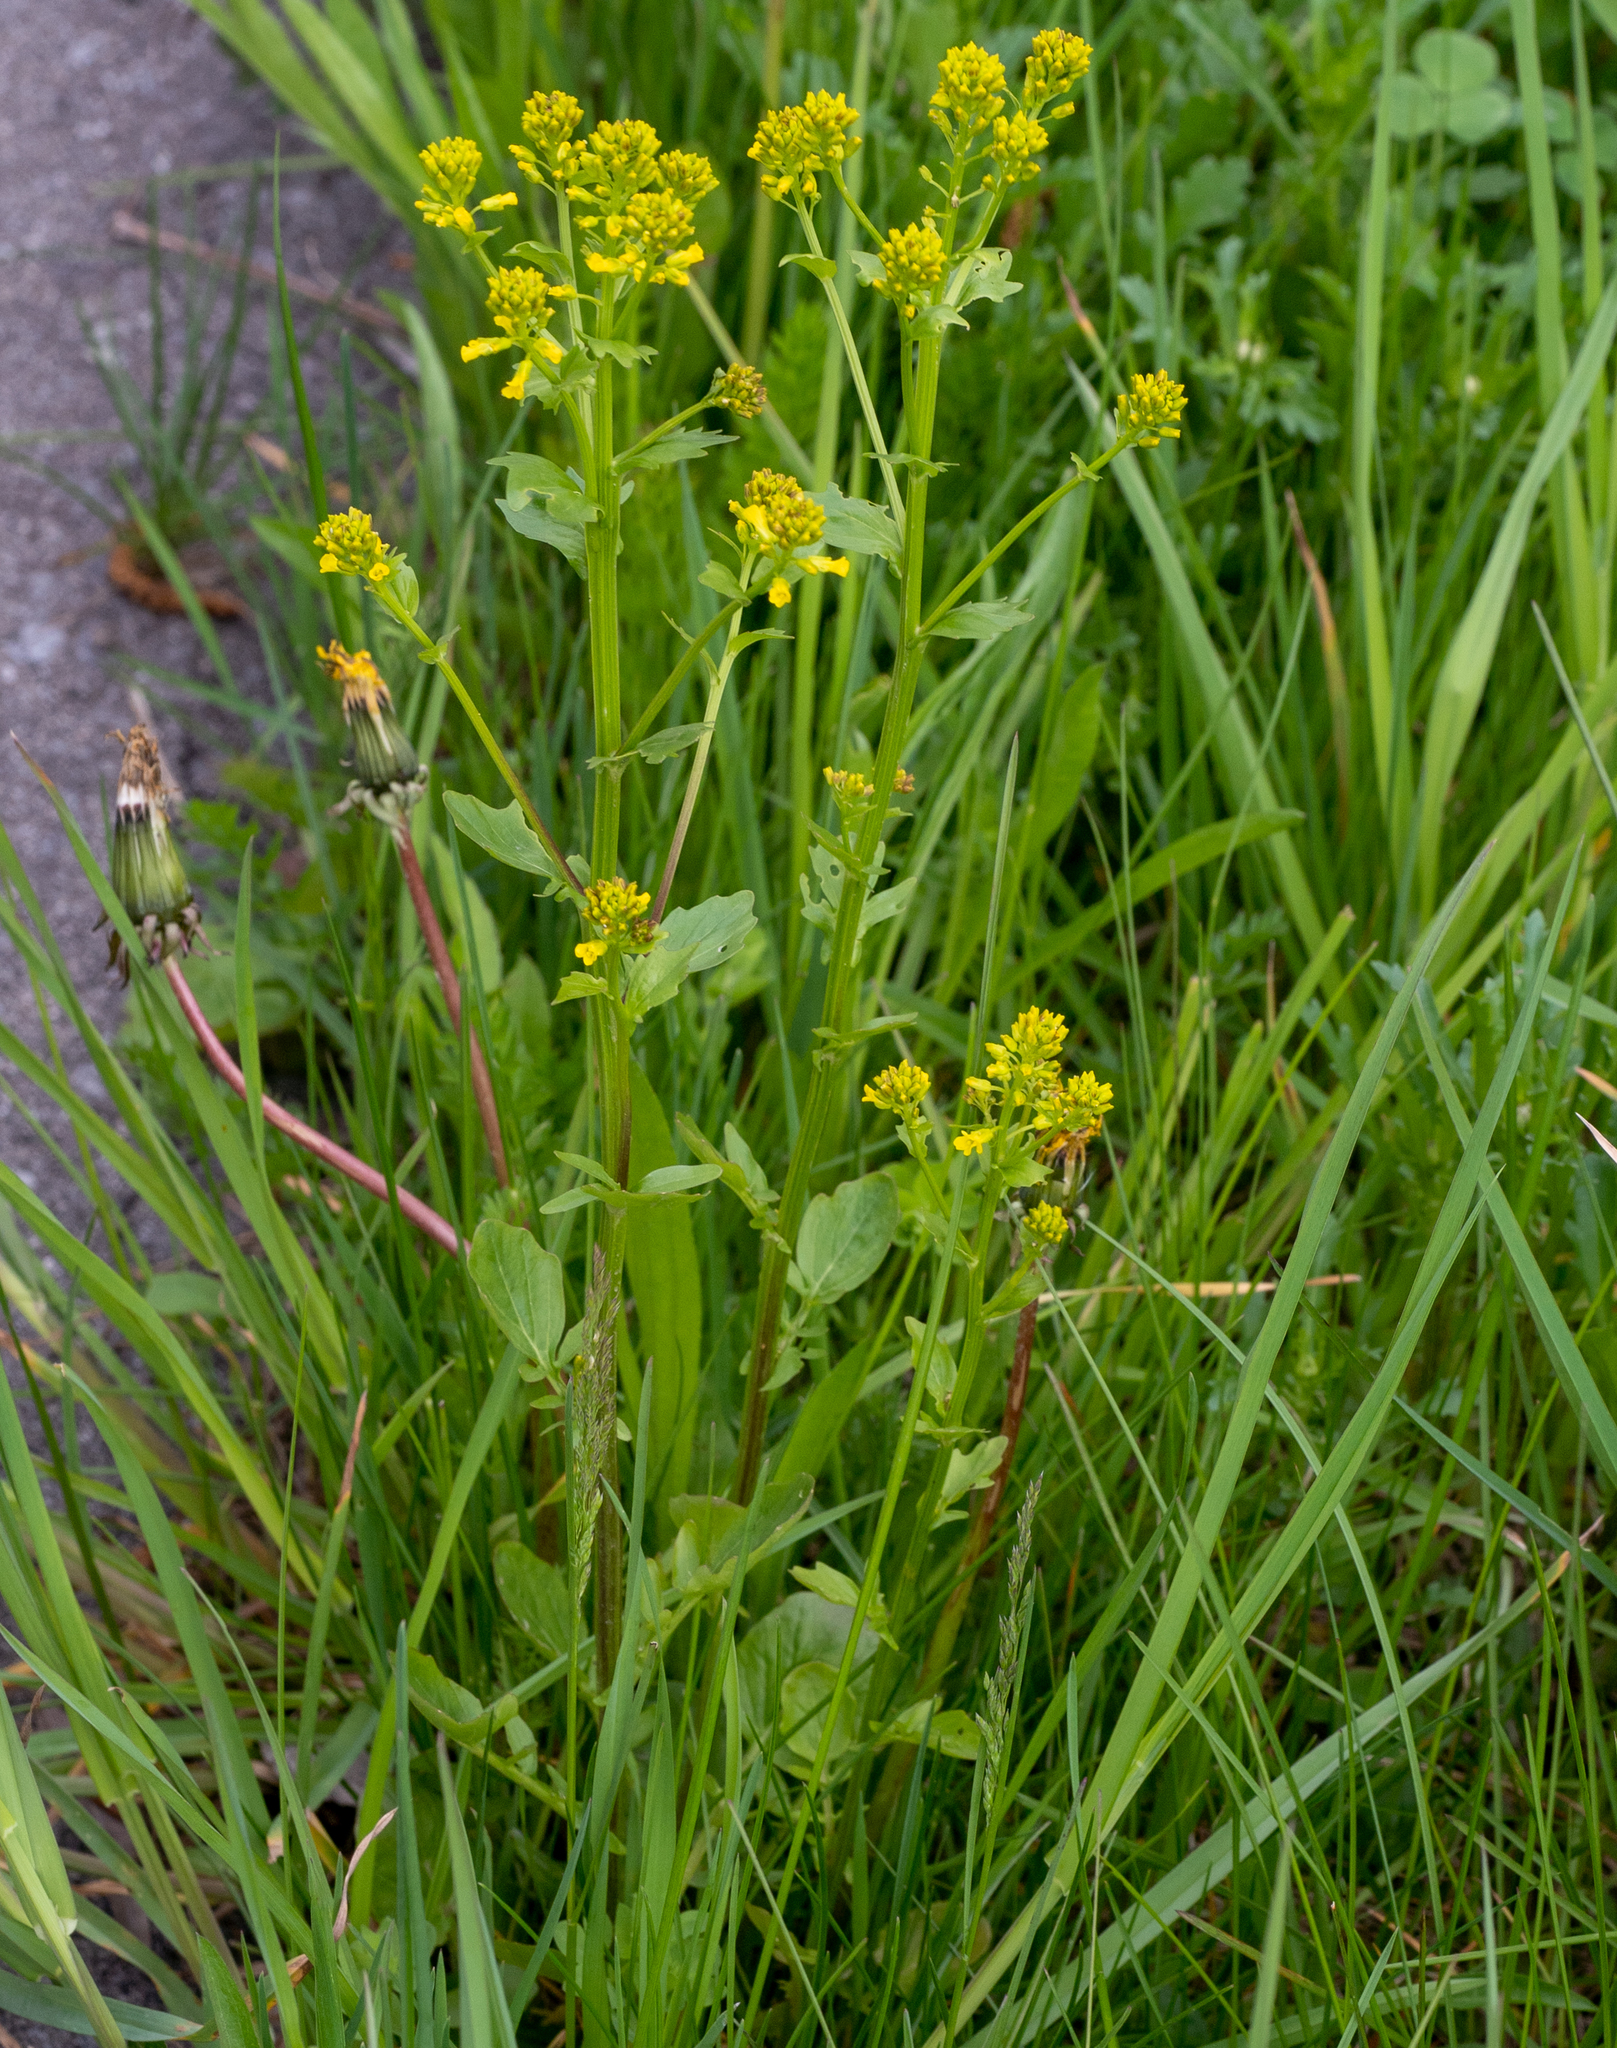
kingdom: Plantae
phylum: Tracheophyta
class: Magnoliopsida
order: Brassicales
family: Brassicaceae
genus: Barbarea
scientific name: Barbarea vulgaris
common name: Cressy-greens
